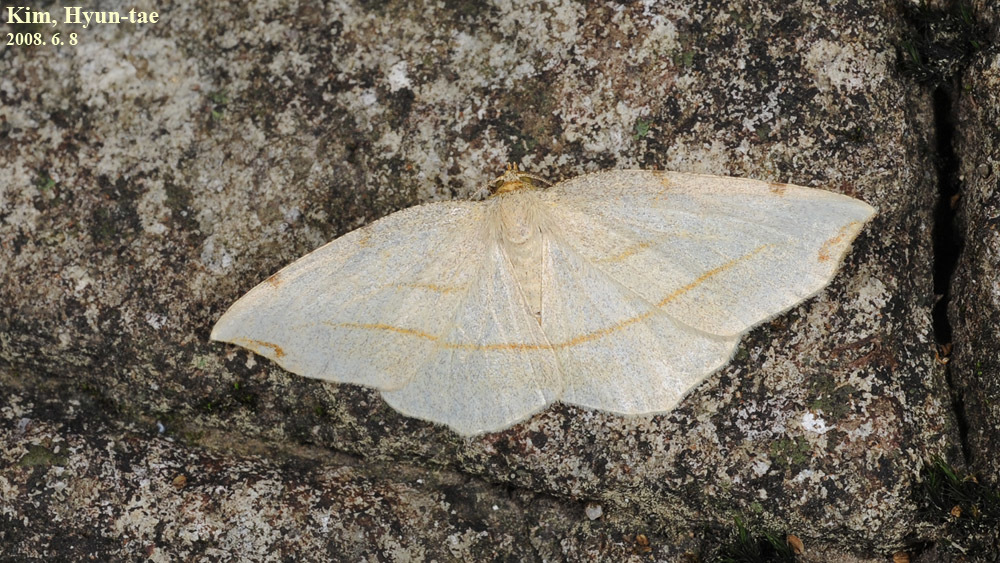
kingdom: Animalia
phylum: Arthropoda
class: Insecta
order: Lepidoptera
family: Geometridae
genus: Spilopera
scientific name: Spilopera debilis
